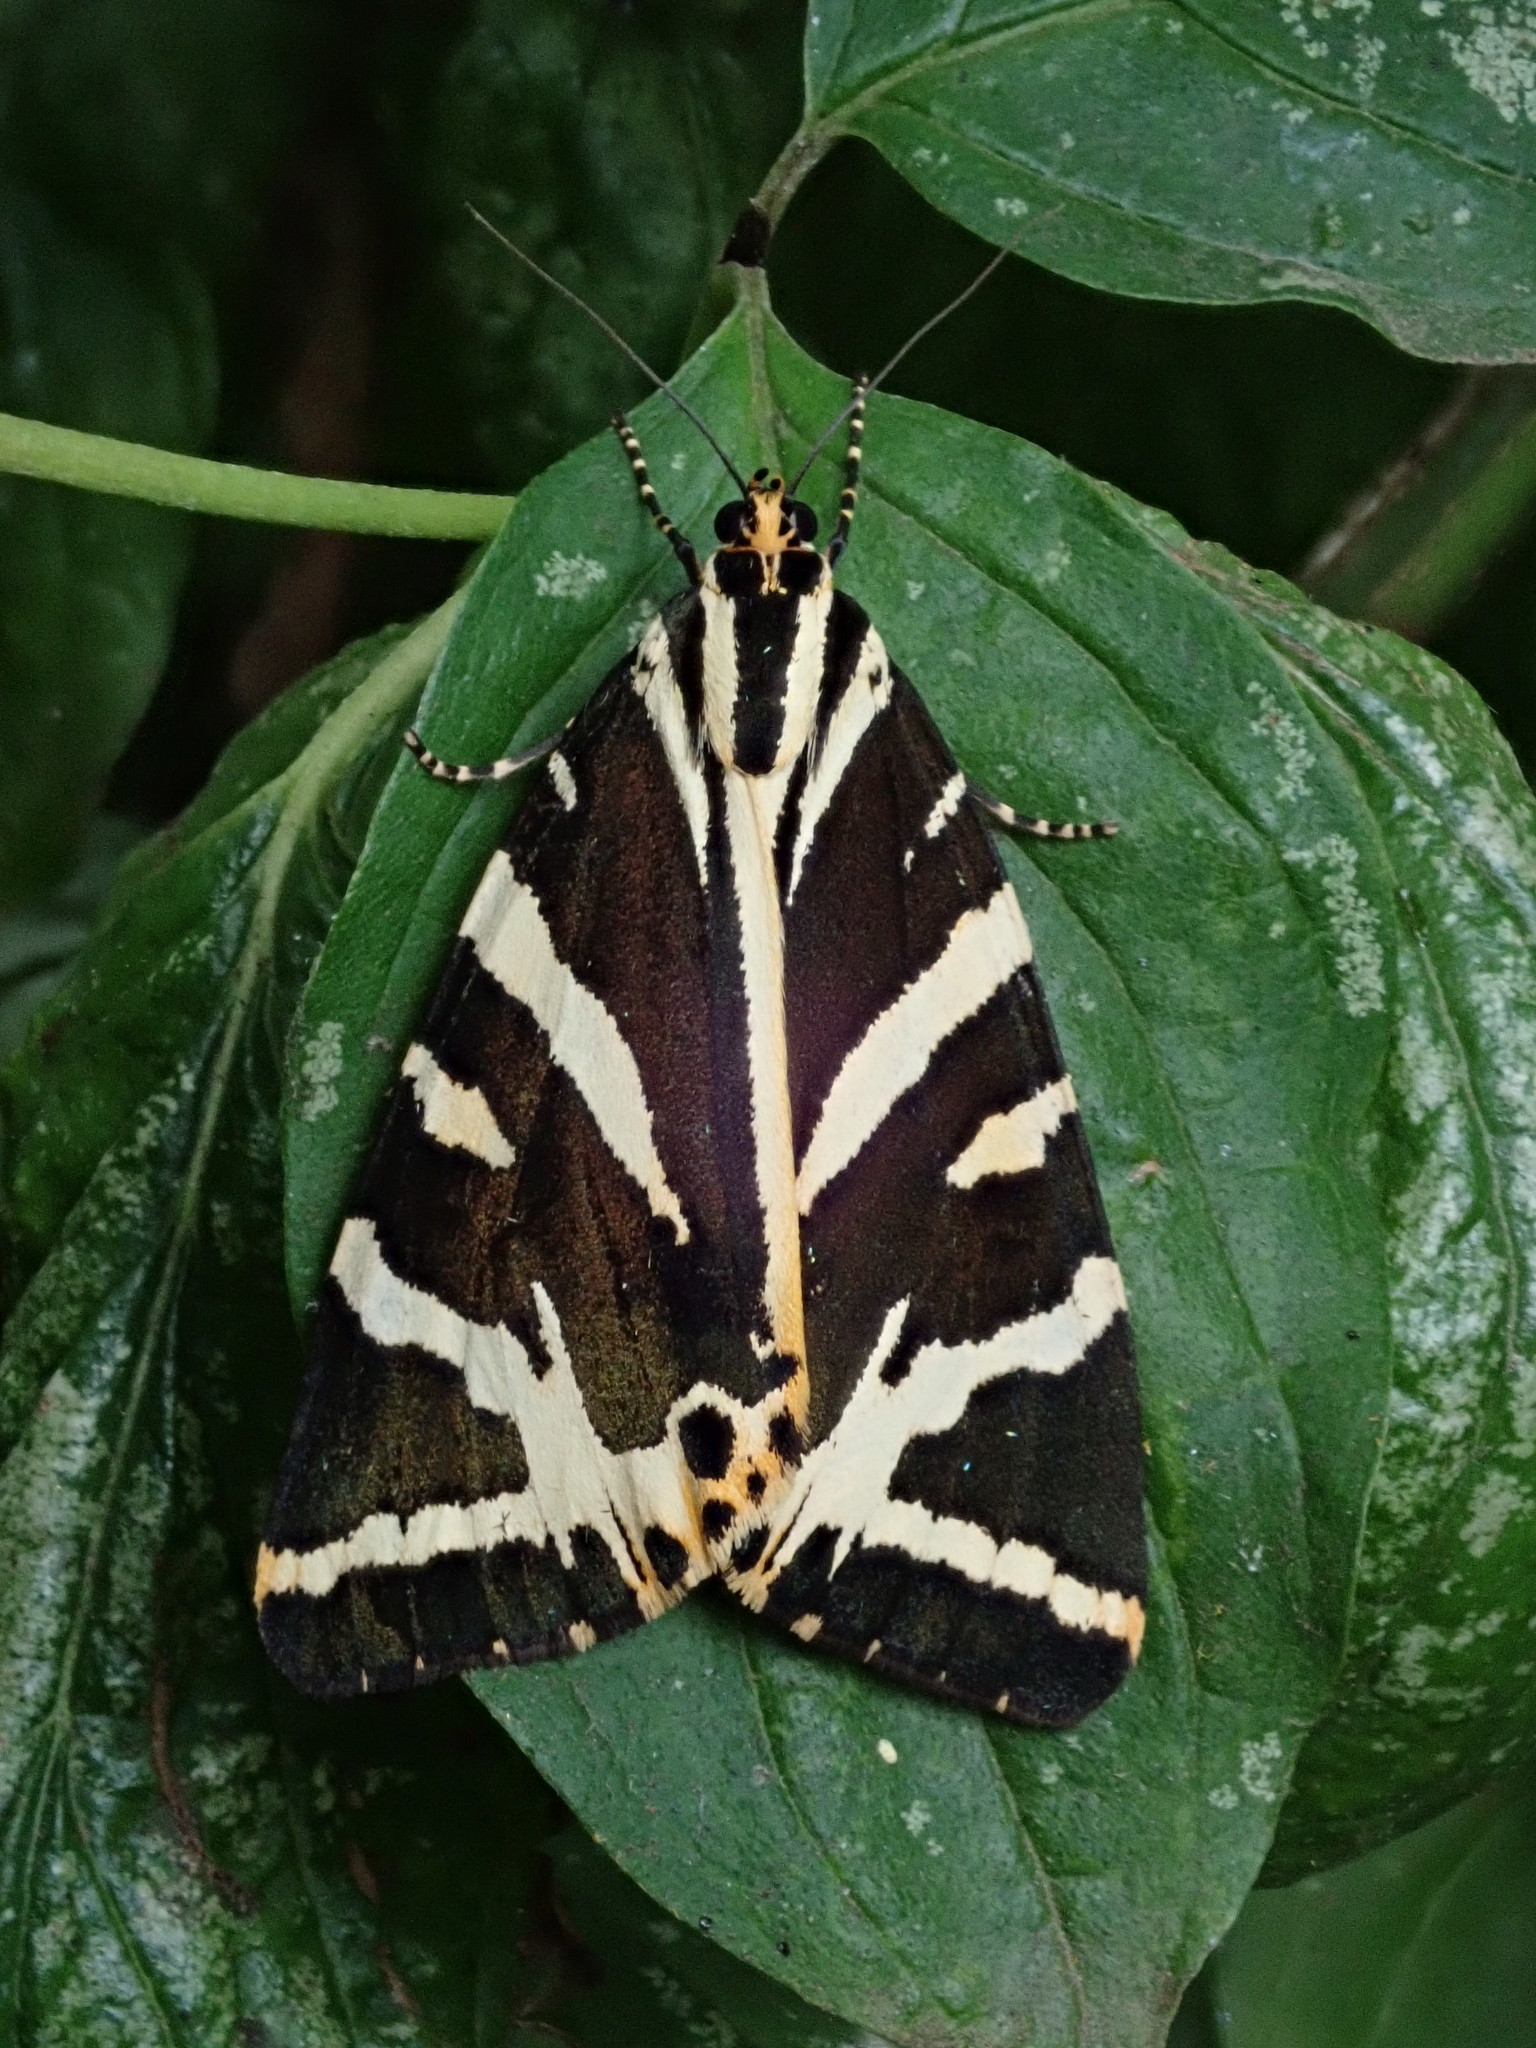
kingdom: Animalia
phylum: Arthropoda
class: Insecta
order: Lepidoptera
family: Erebidae
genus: Euplagia
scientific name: Euplagia quadripunctaria
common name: Jersey tiger
